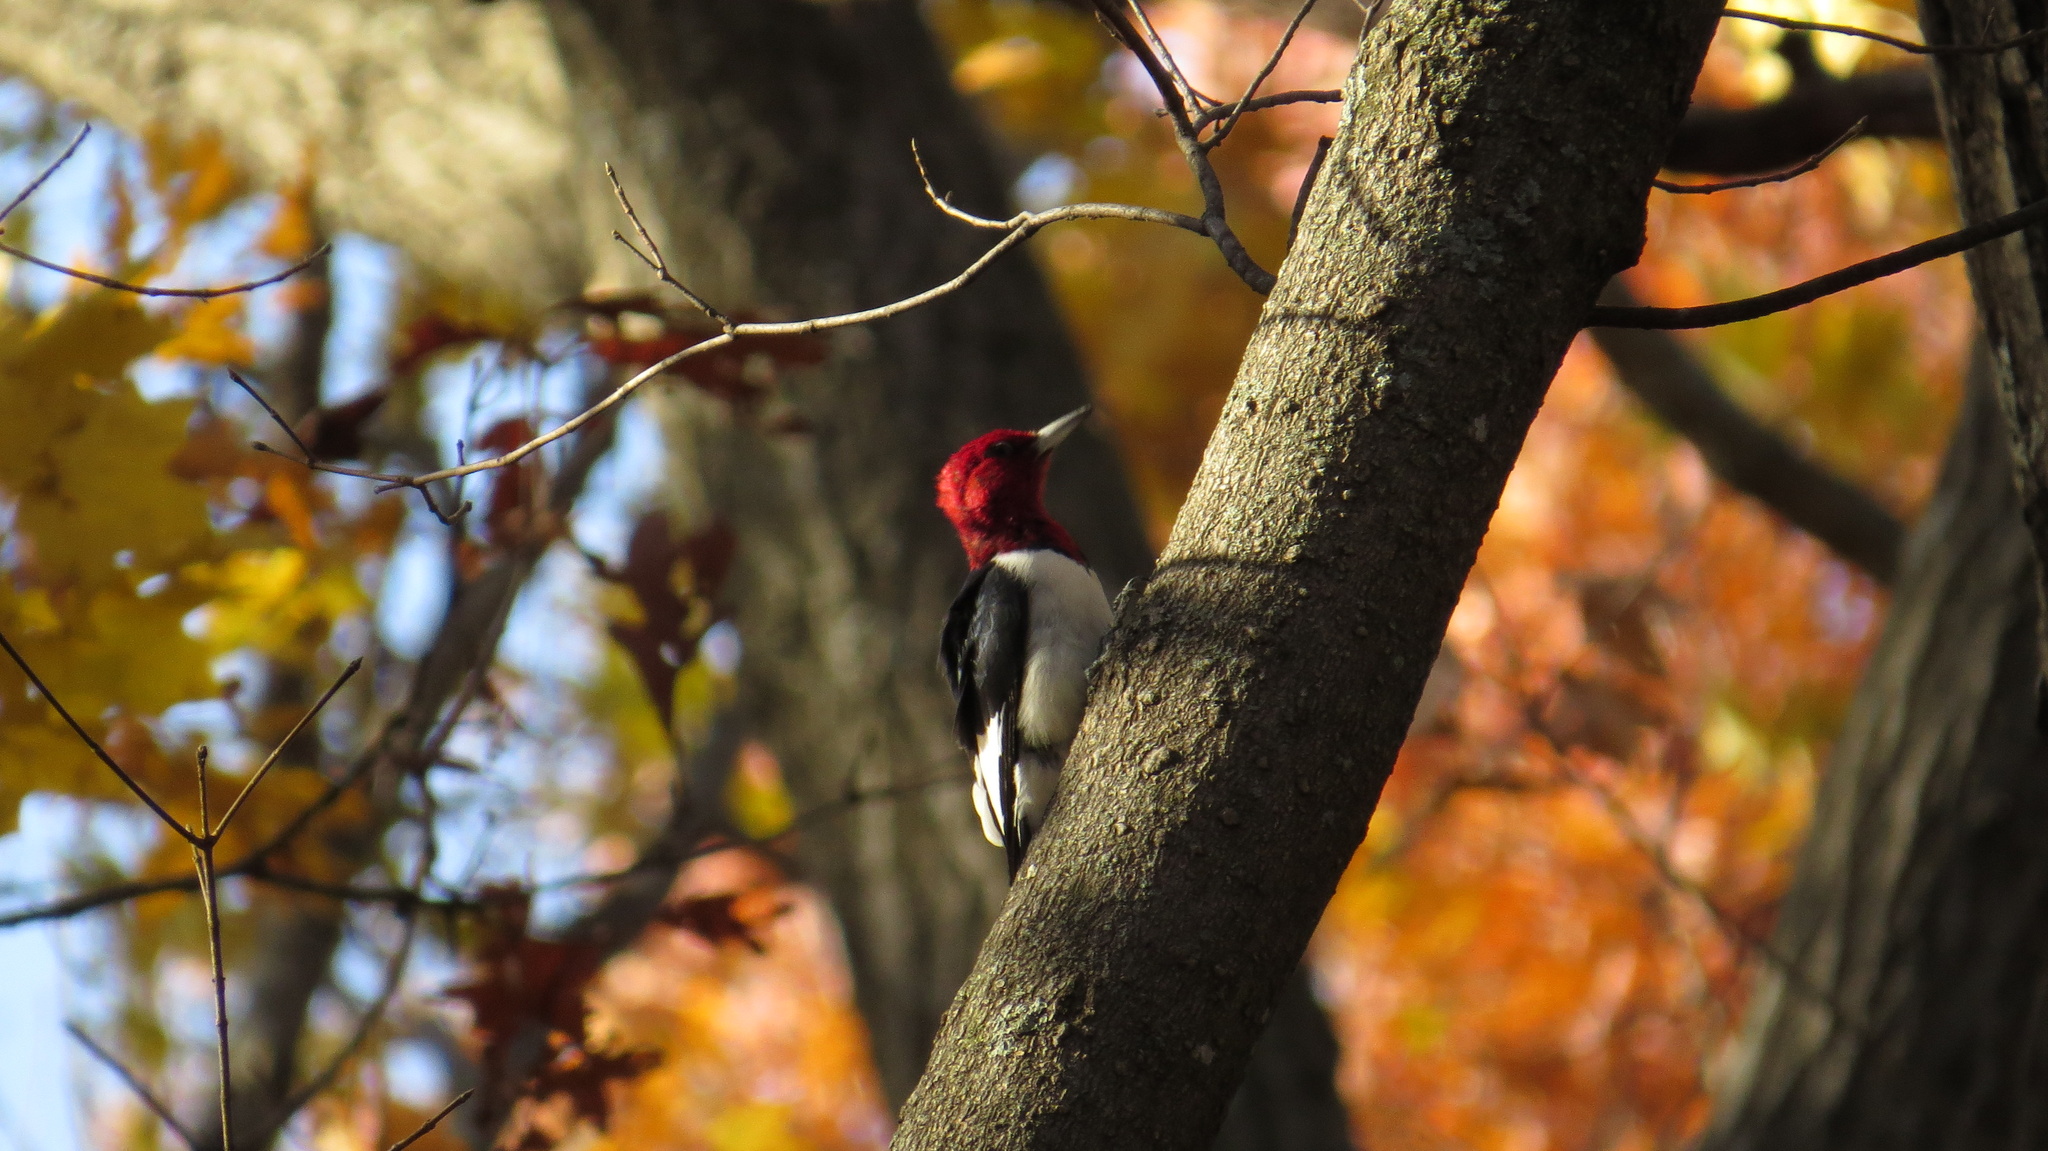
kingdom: Animalia
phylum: Chordata
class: Aves
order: Piciformes
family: Picidae
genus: Melanerpes
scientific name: Melanerpes erythrocephalus
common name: Red-headed woodpecker
